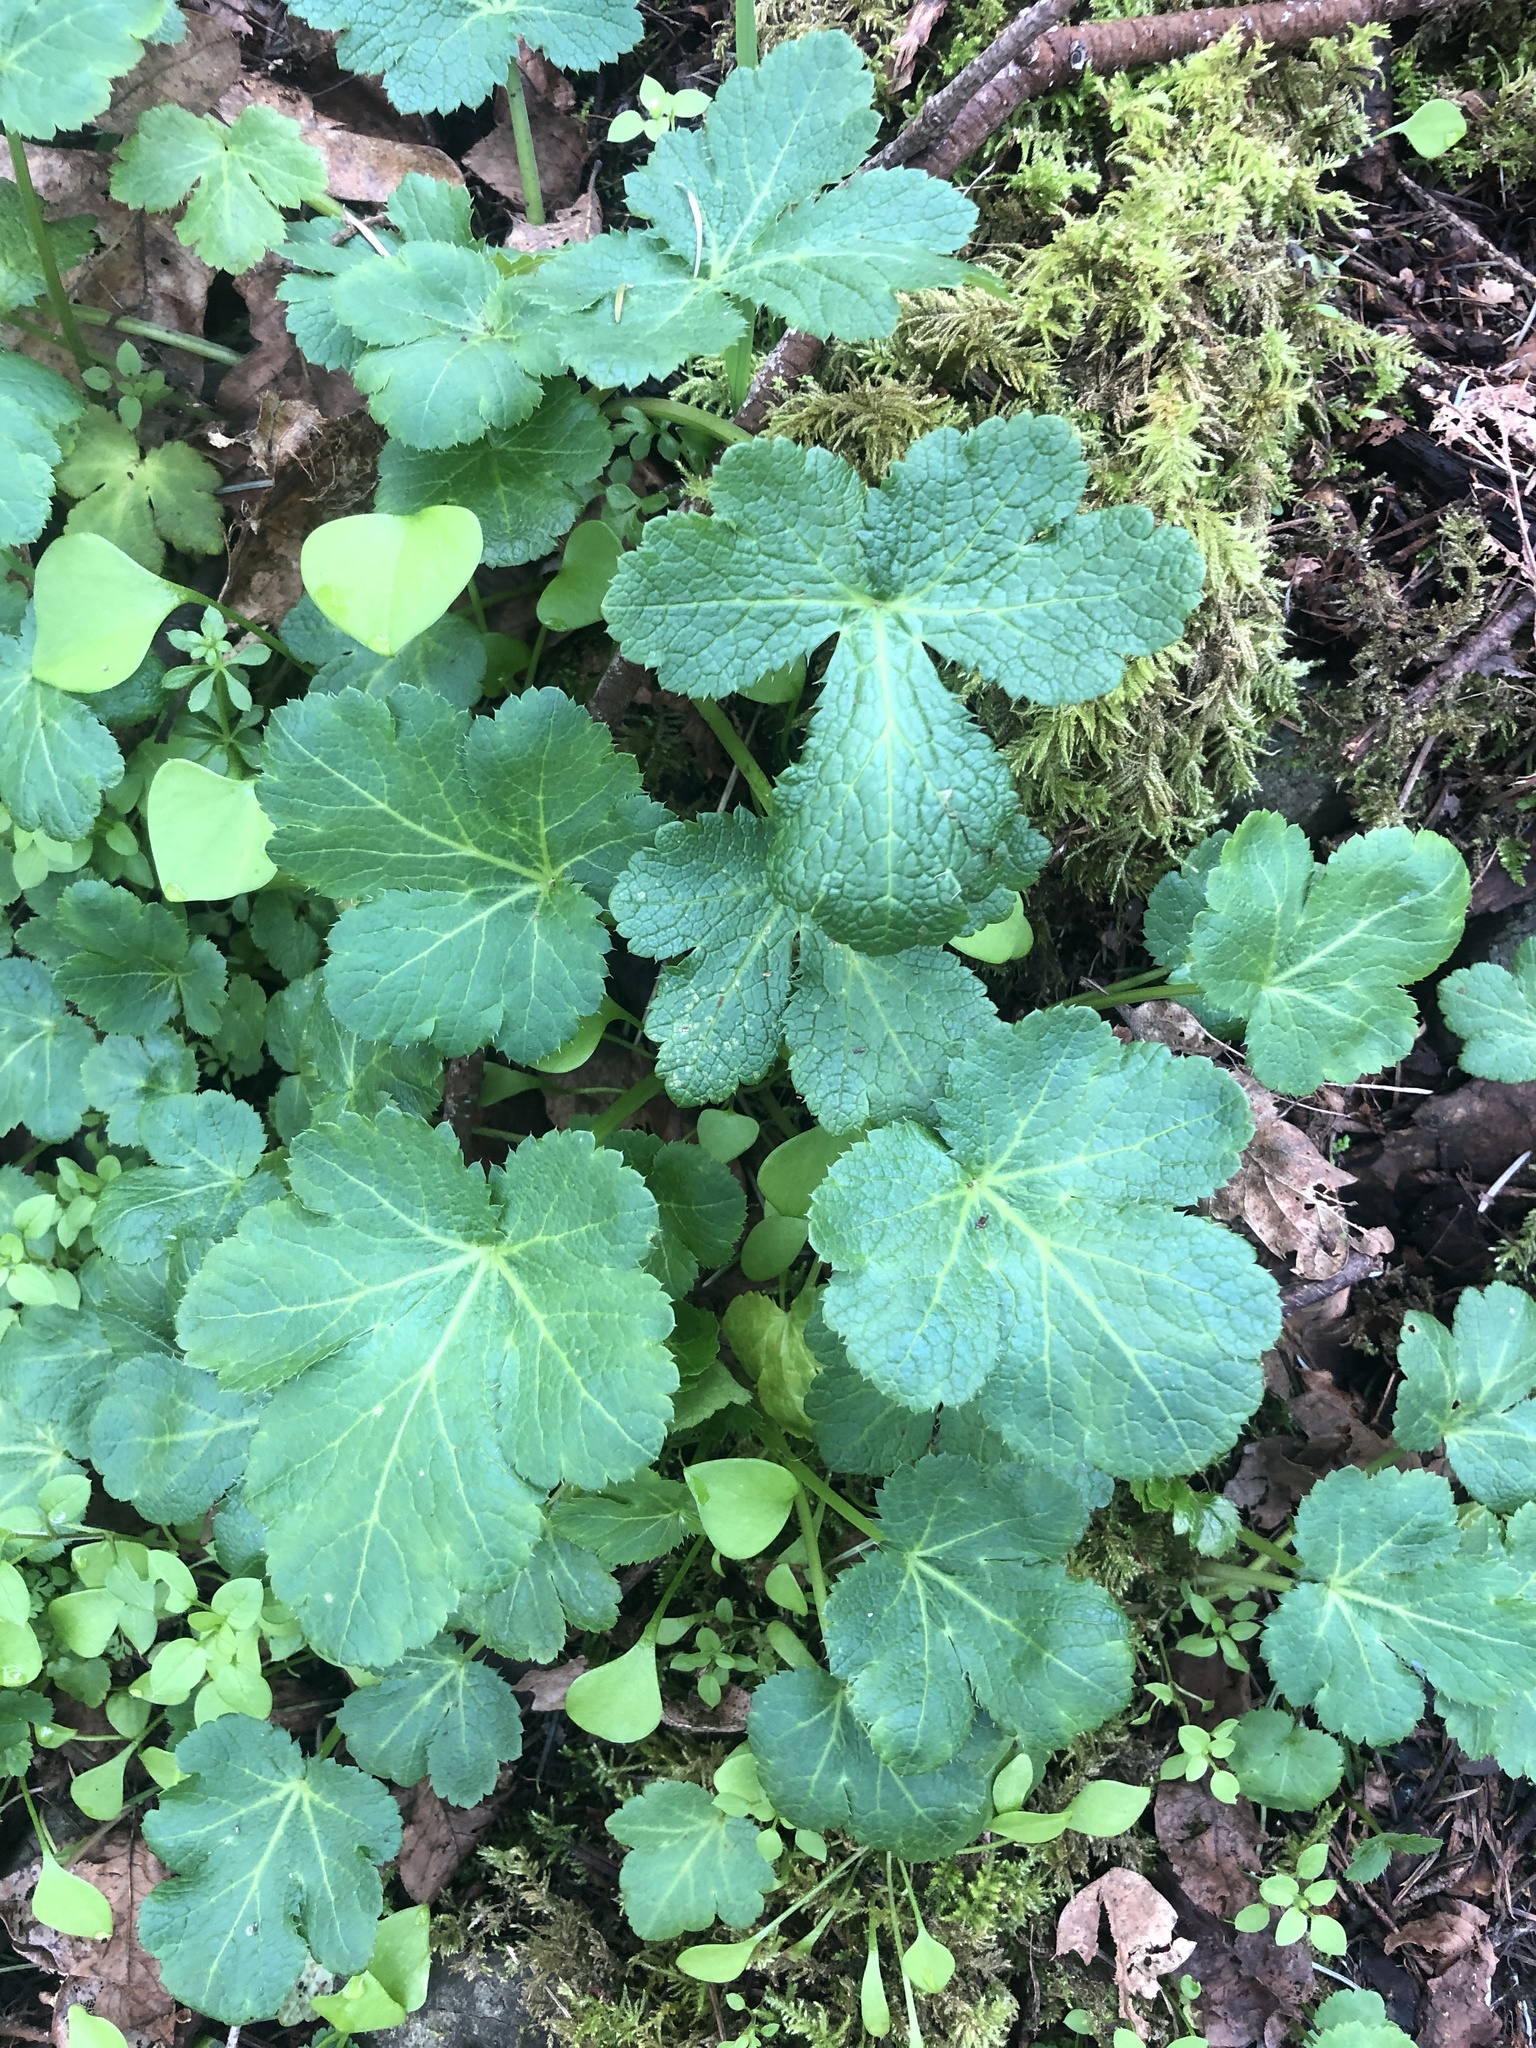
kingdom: Plantae
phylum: Tracheophyta
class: Magnoliopsida
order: Apiales
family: Apiaceae
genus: Sanicula
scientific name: Sanicula crassicaulis
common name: Western snakeroot
